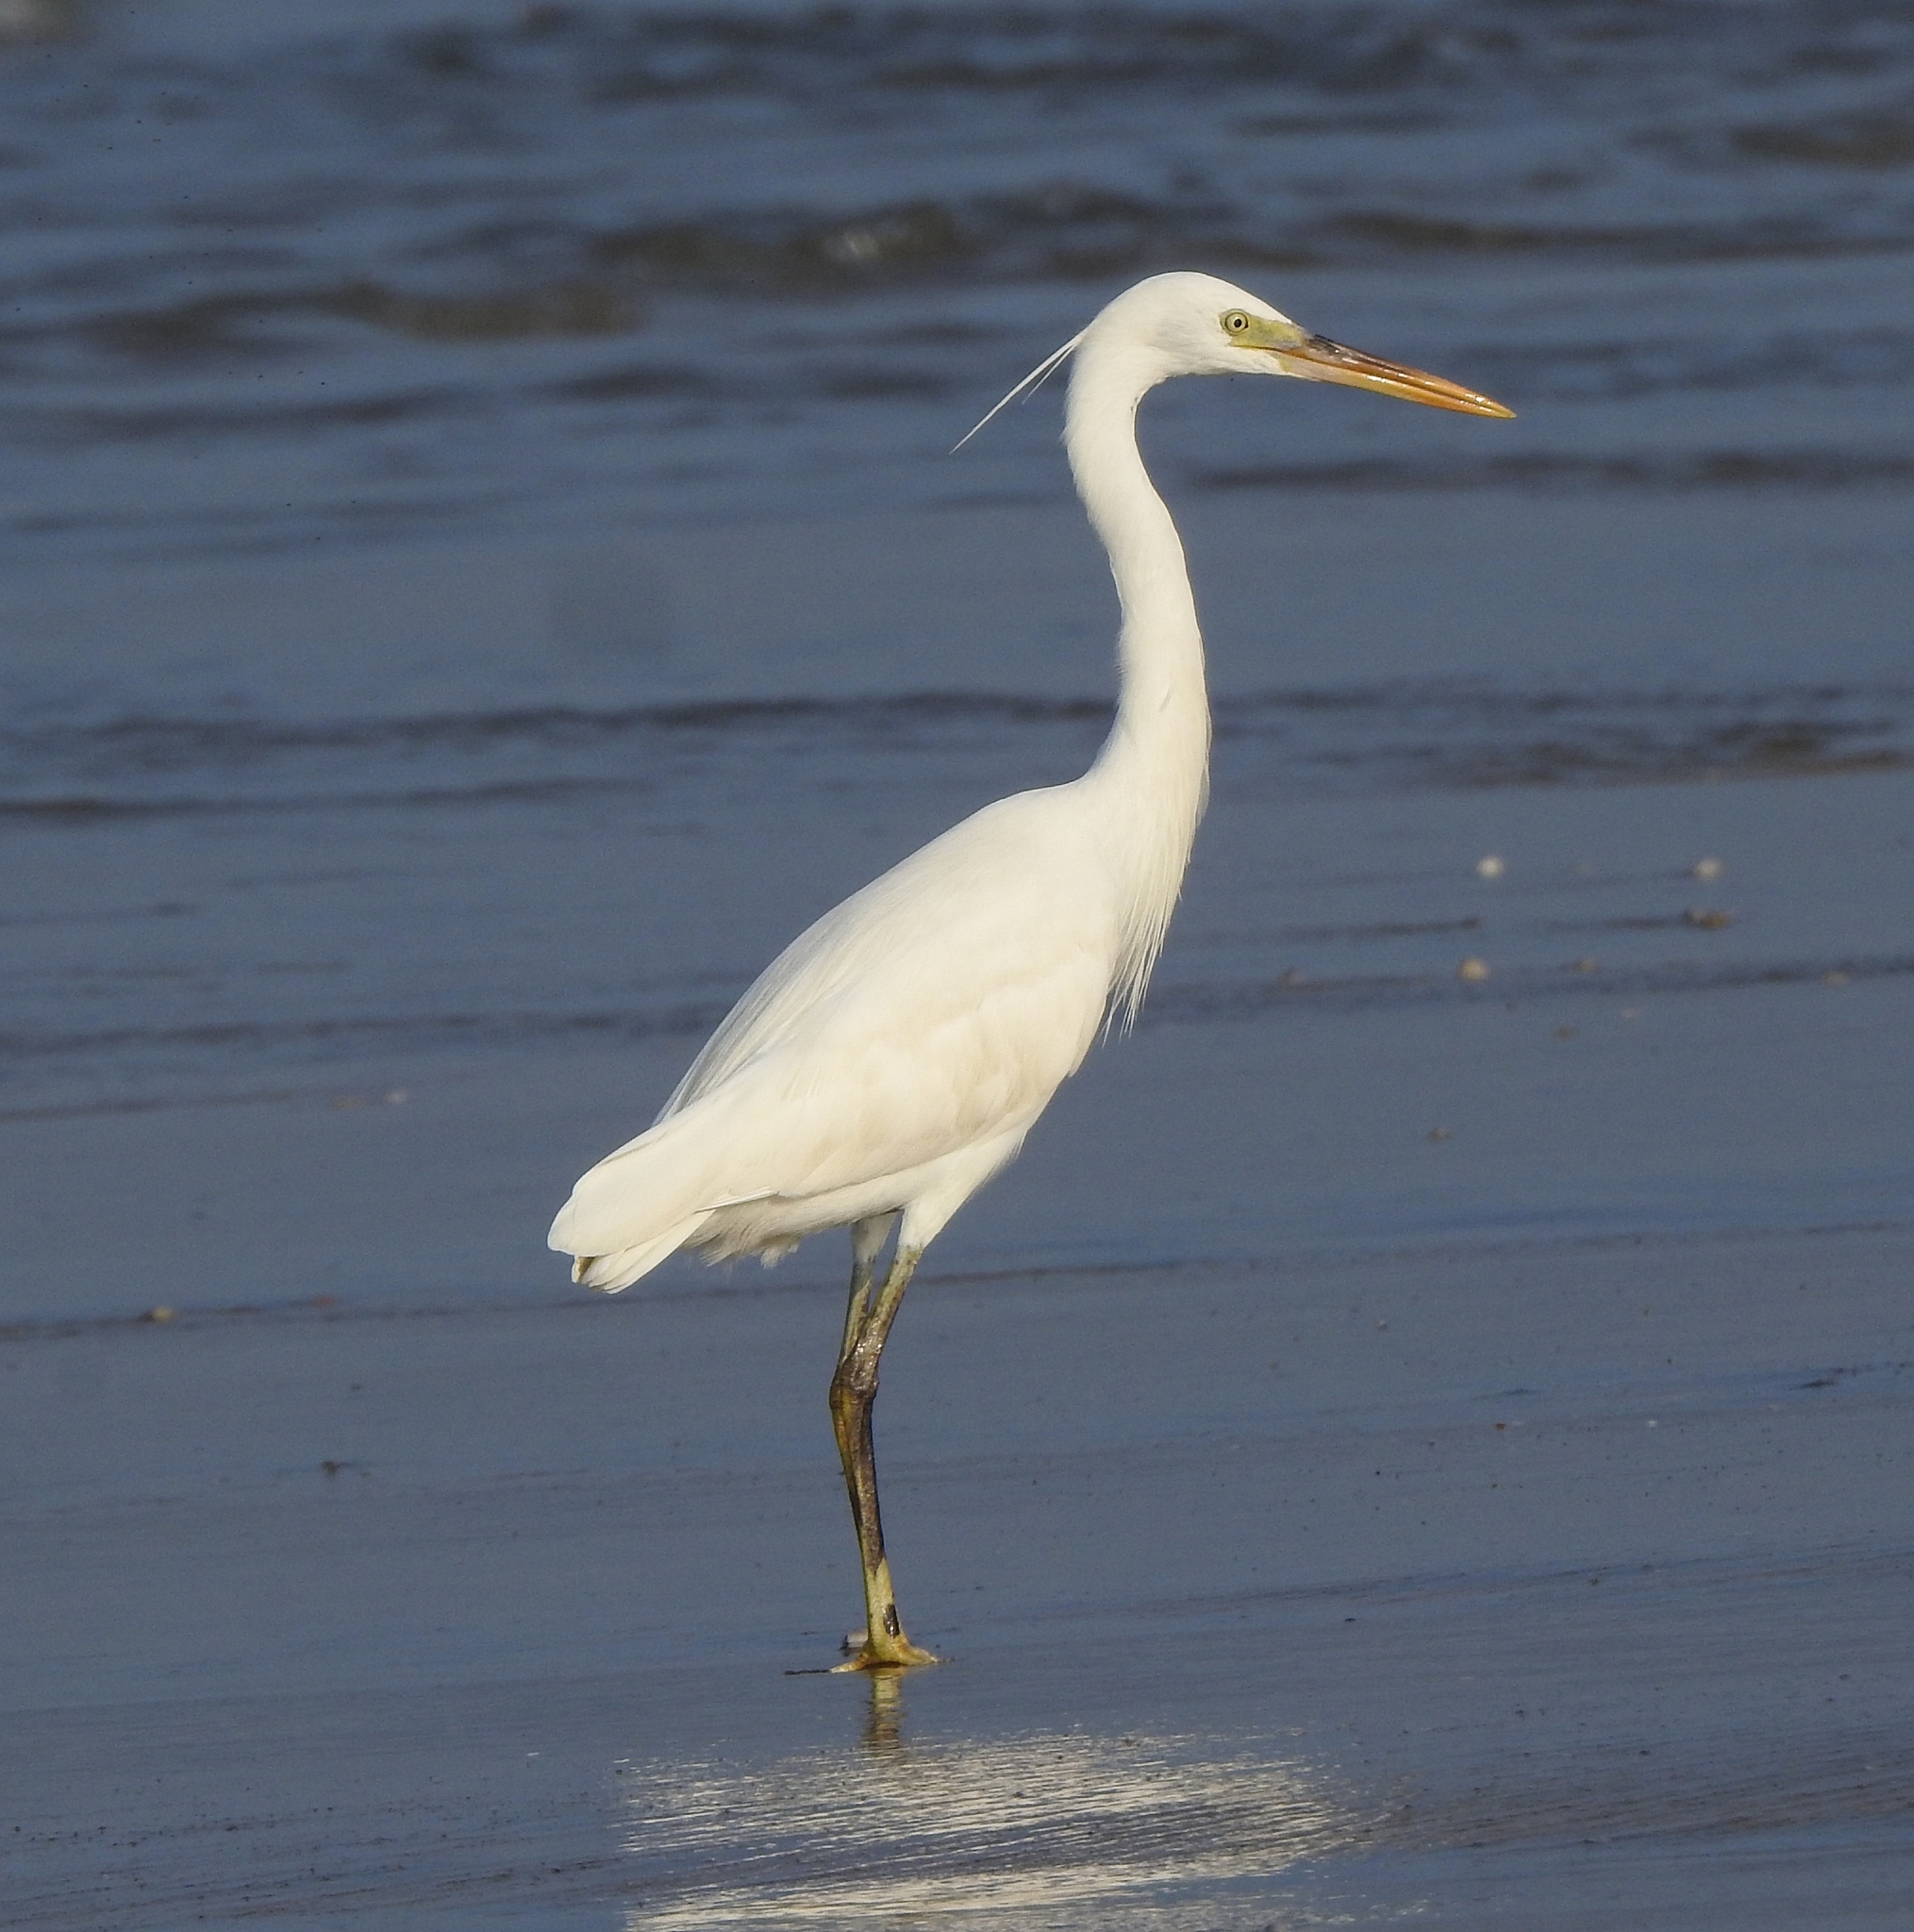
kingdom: Animalia
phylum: Chordata
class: Aves
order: Pelecaniformes
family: Ardeidae
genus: Egretta
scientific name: Egretta gularis
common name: Western reef-heron
